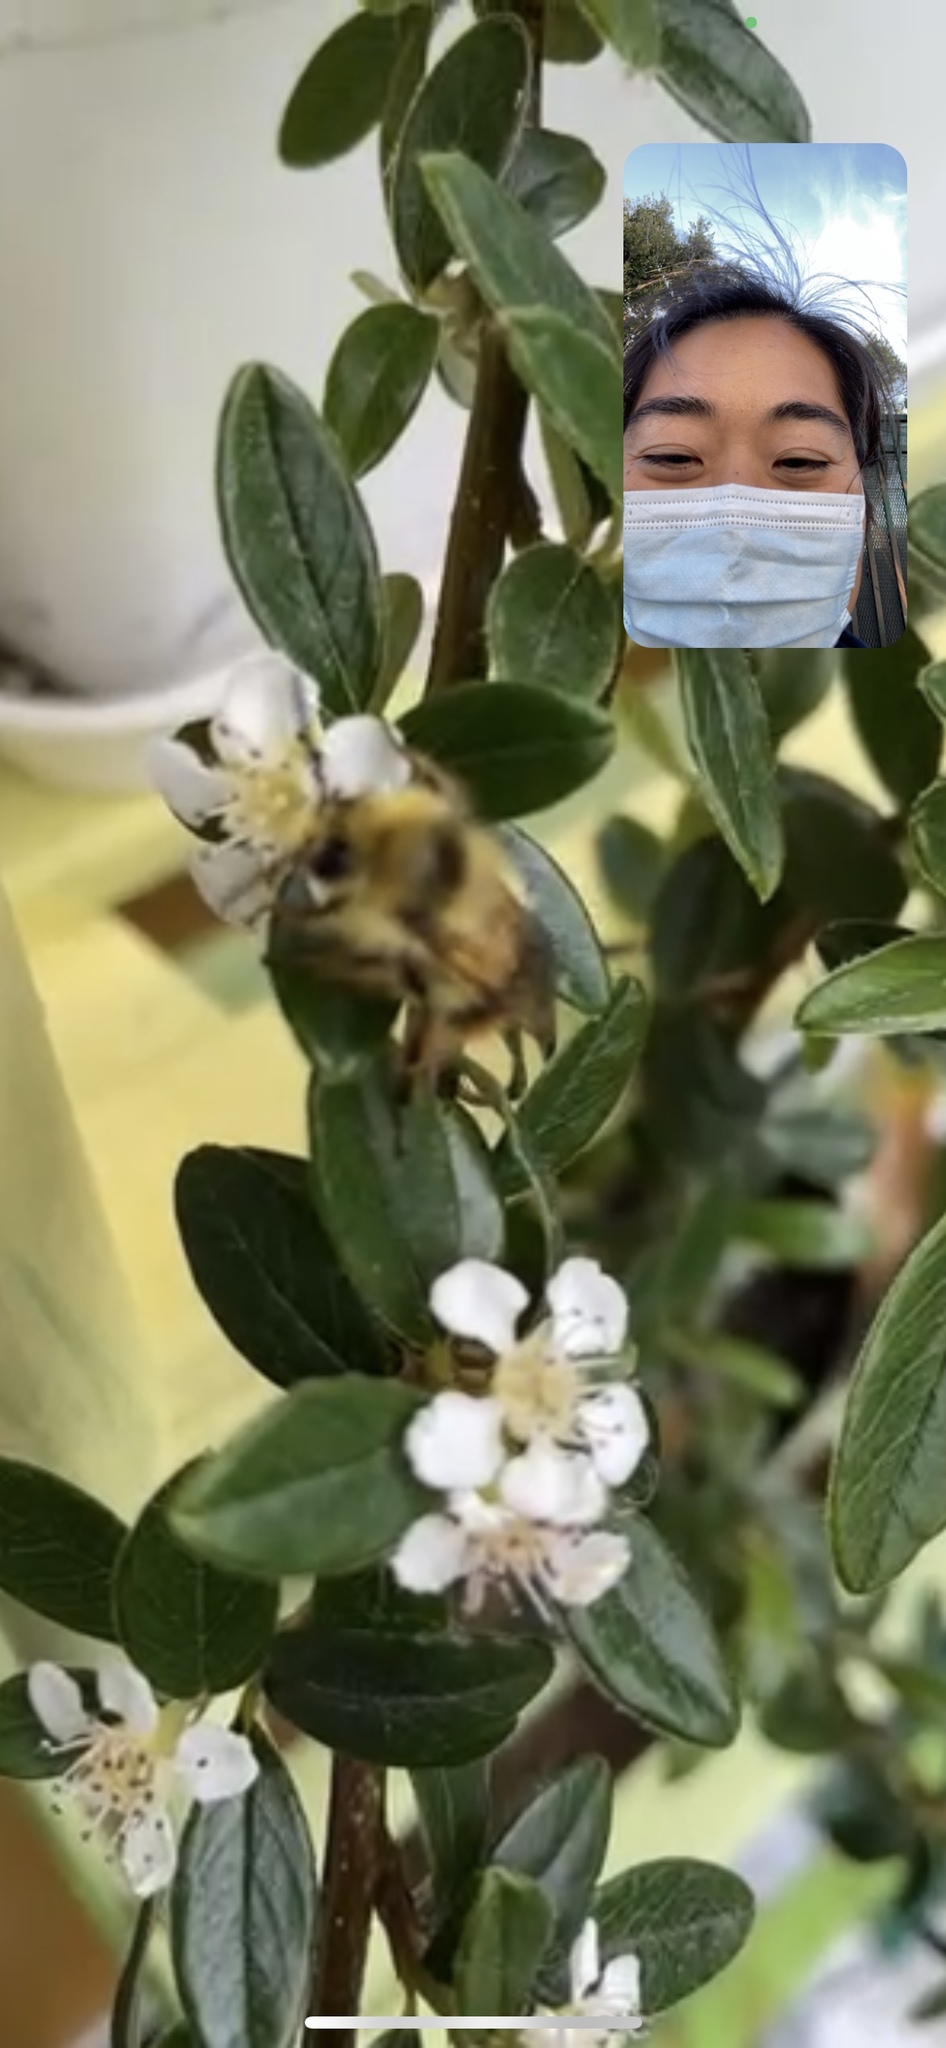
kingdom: Animalia
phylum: Arthropoda
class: Insecta
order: Hymenoptera
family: Apidae
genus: Bombus
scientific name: Bombus mixtus
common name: Fuzzy-horned bumble bee
